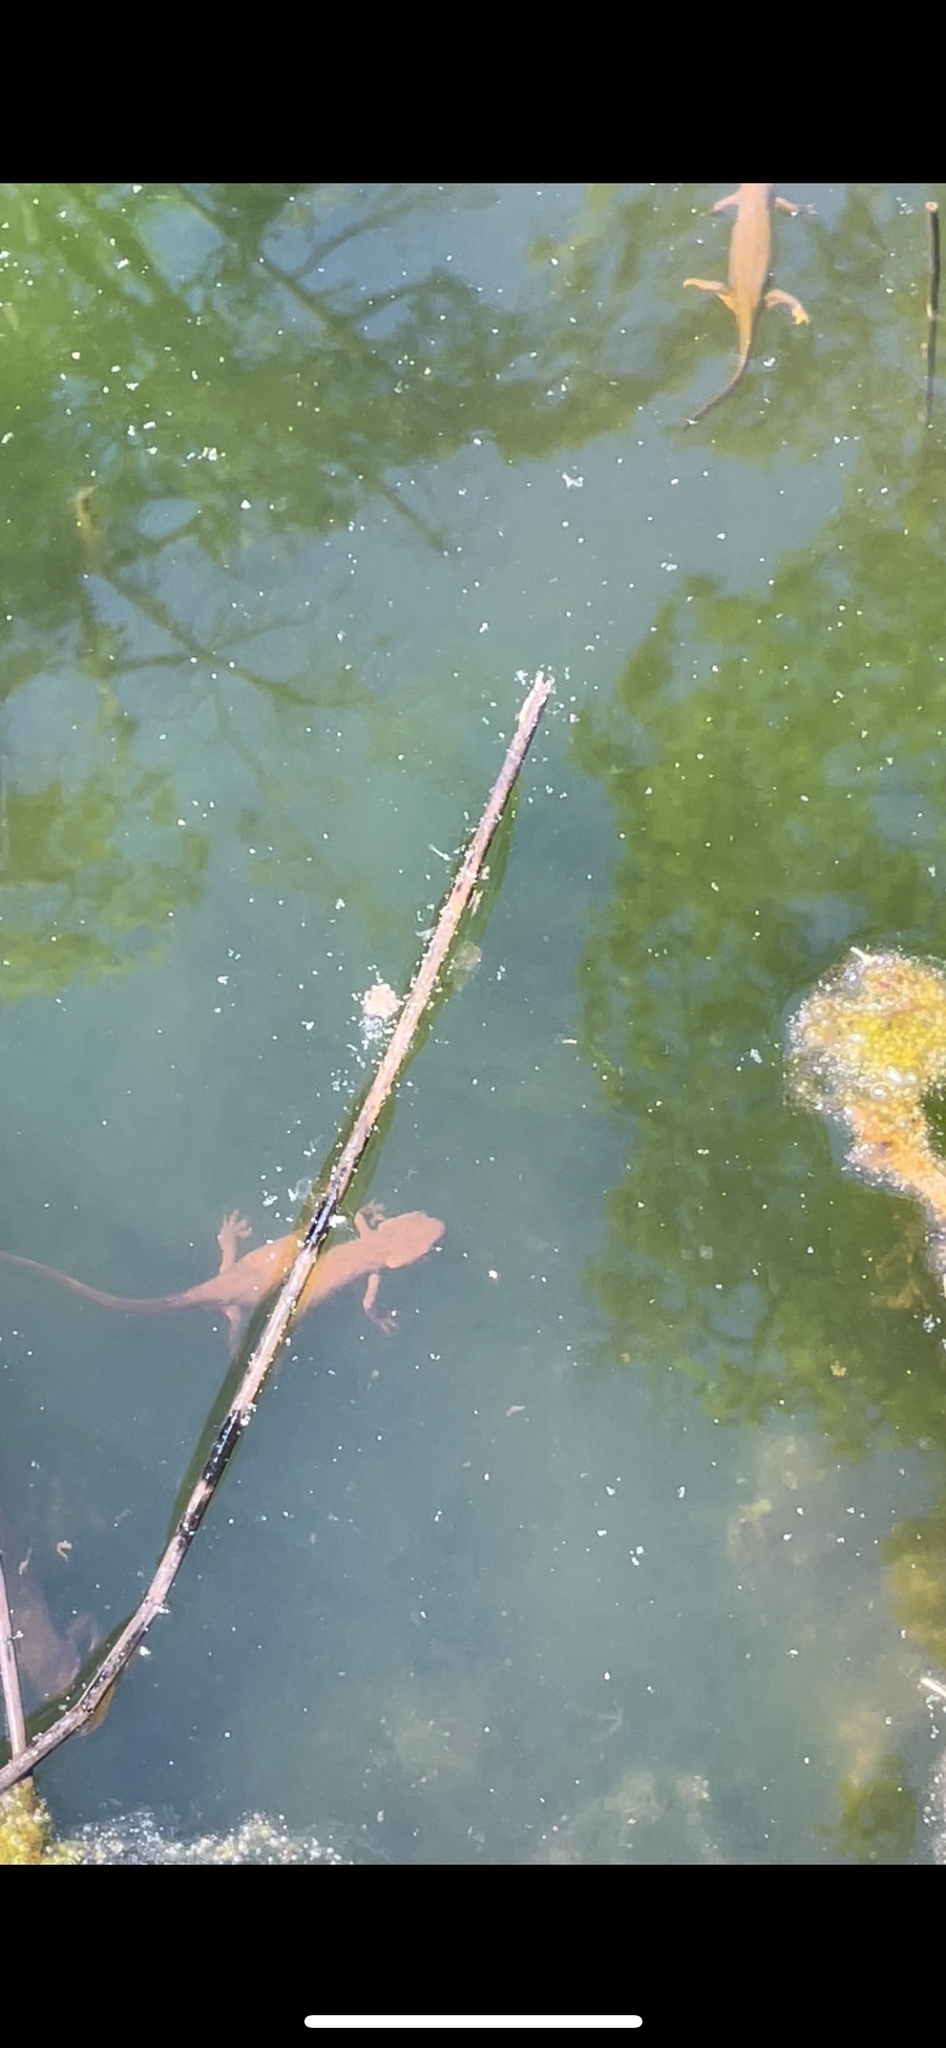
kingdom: Animalia
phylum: Chordata
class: Amphibia
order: Caudata
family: Salamandridae
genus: Taricha
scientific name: Taricha granulosa
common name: Roughskin newt
